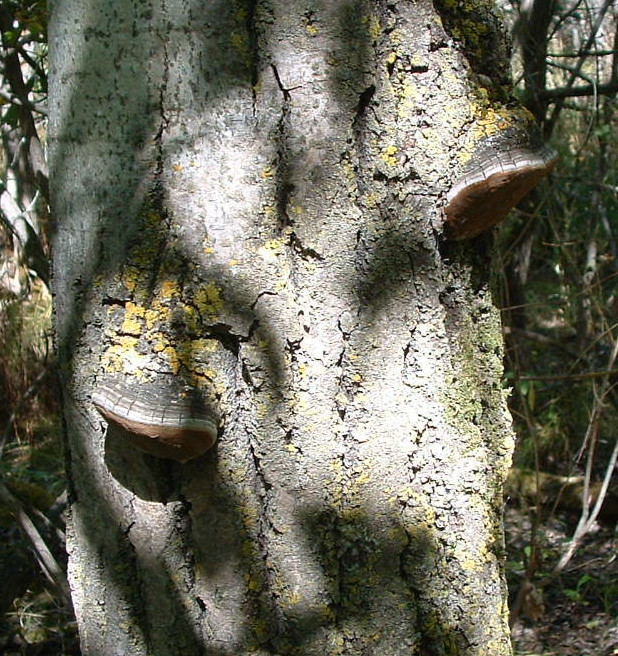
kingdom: Fungi
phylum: Basidiomycota
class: Agaricomycetes
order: Hymenochaetales
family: Hymenochaetaceae
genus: Phellinus
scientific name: Phellinus tremulae
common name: Aspen bracket
